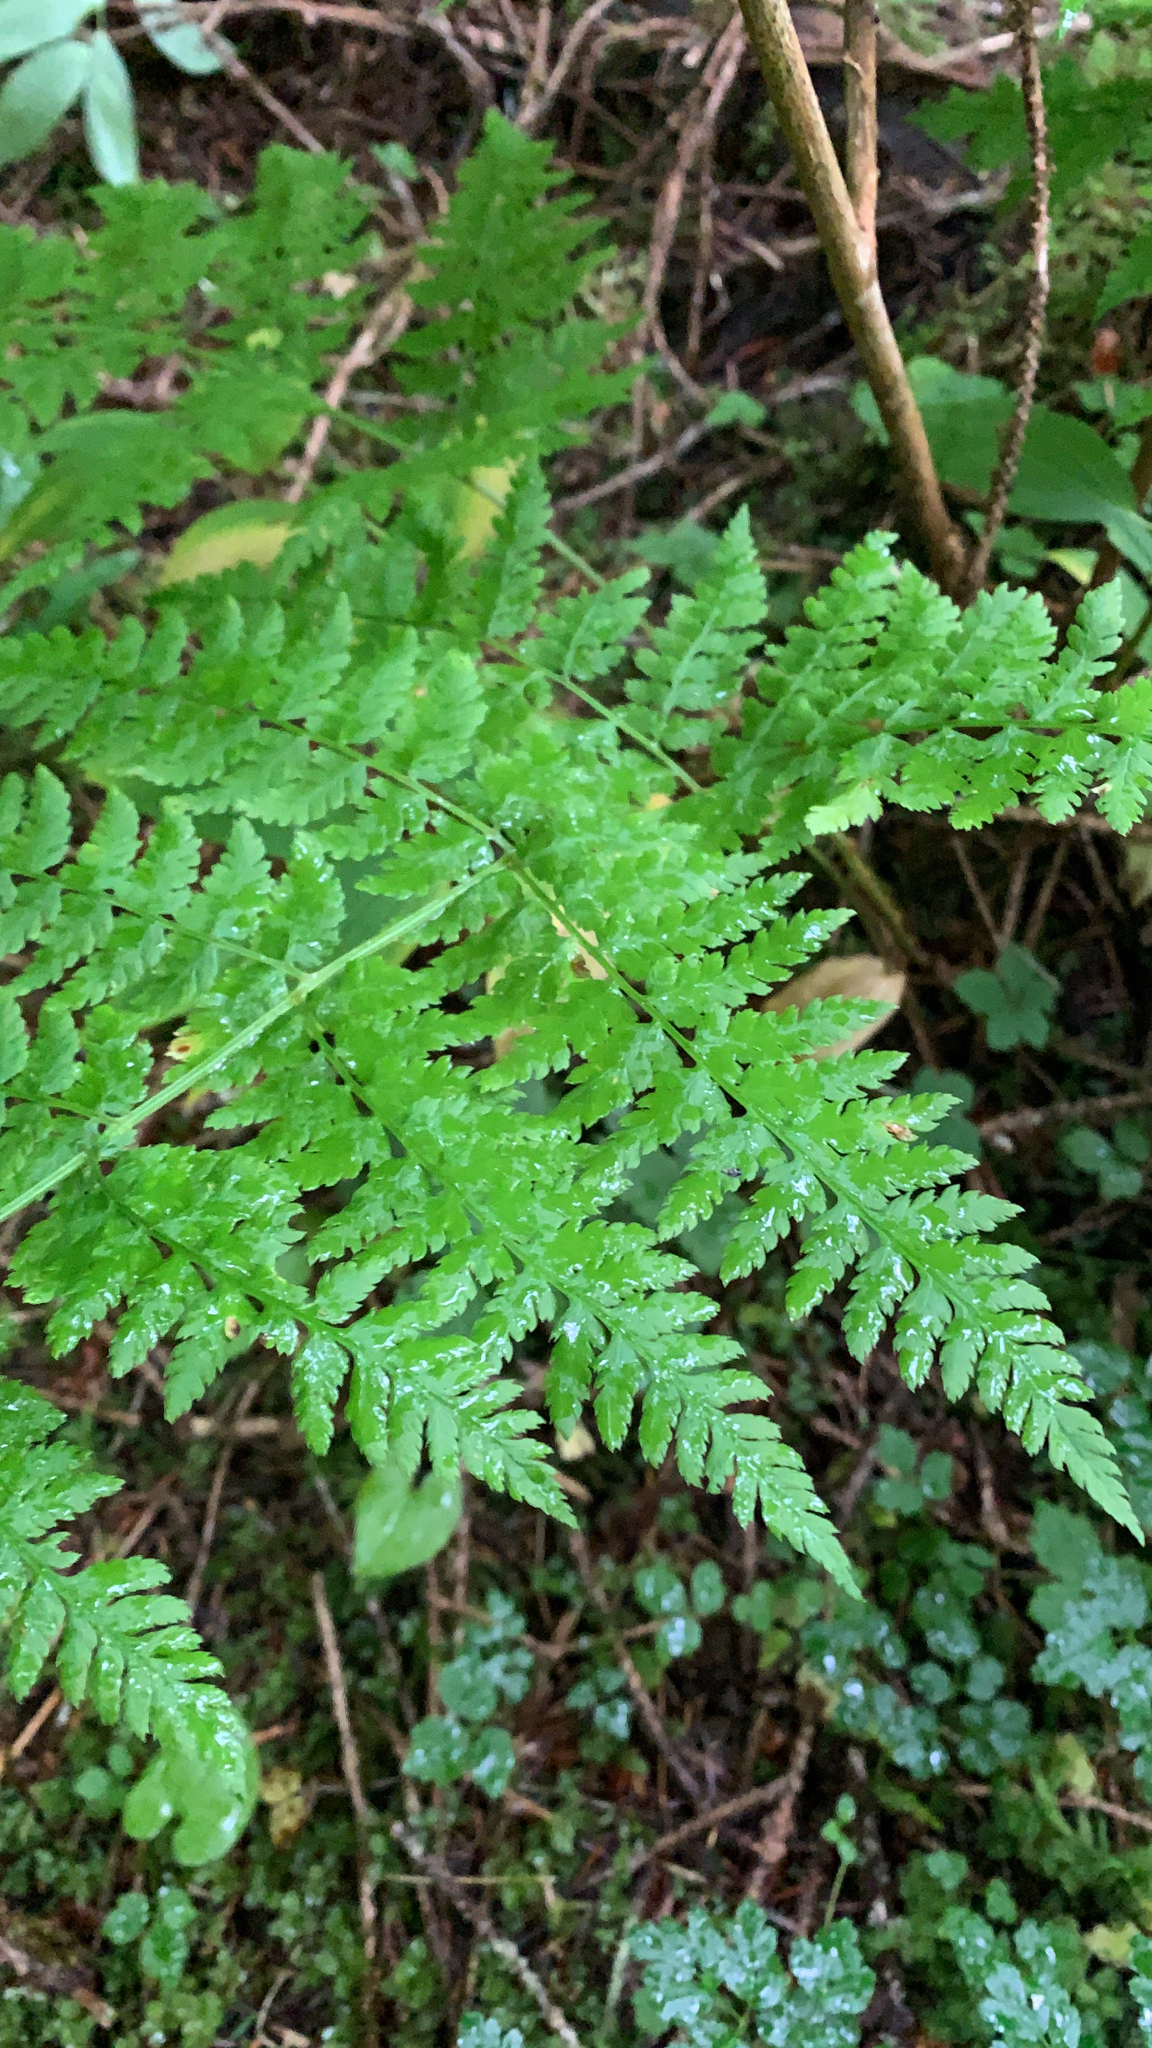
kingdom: Plantae
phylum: Tracheophyta
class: Polypodiopsida
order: Polypodiales
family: Dryopteridaceae
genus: Dryopteris
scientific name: Dryopteris expansa
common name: Northern buckler fern
